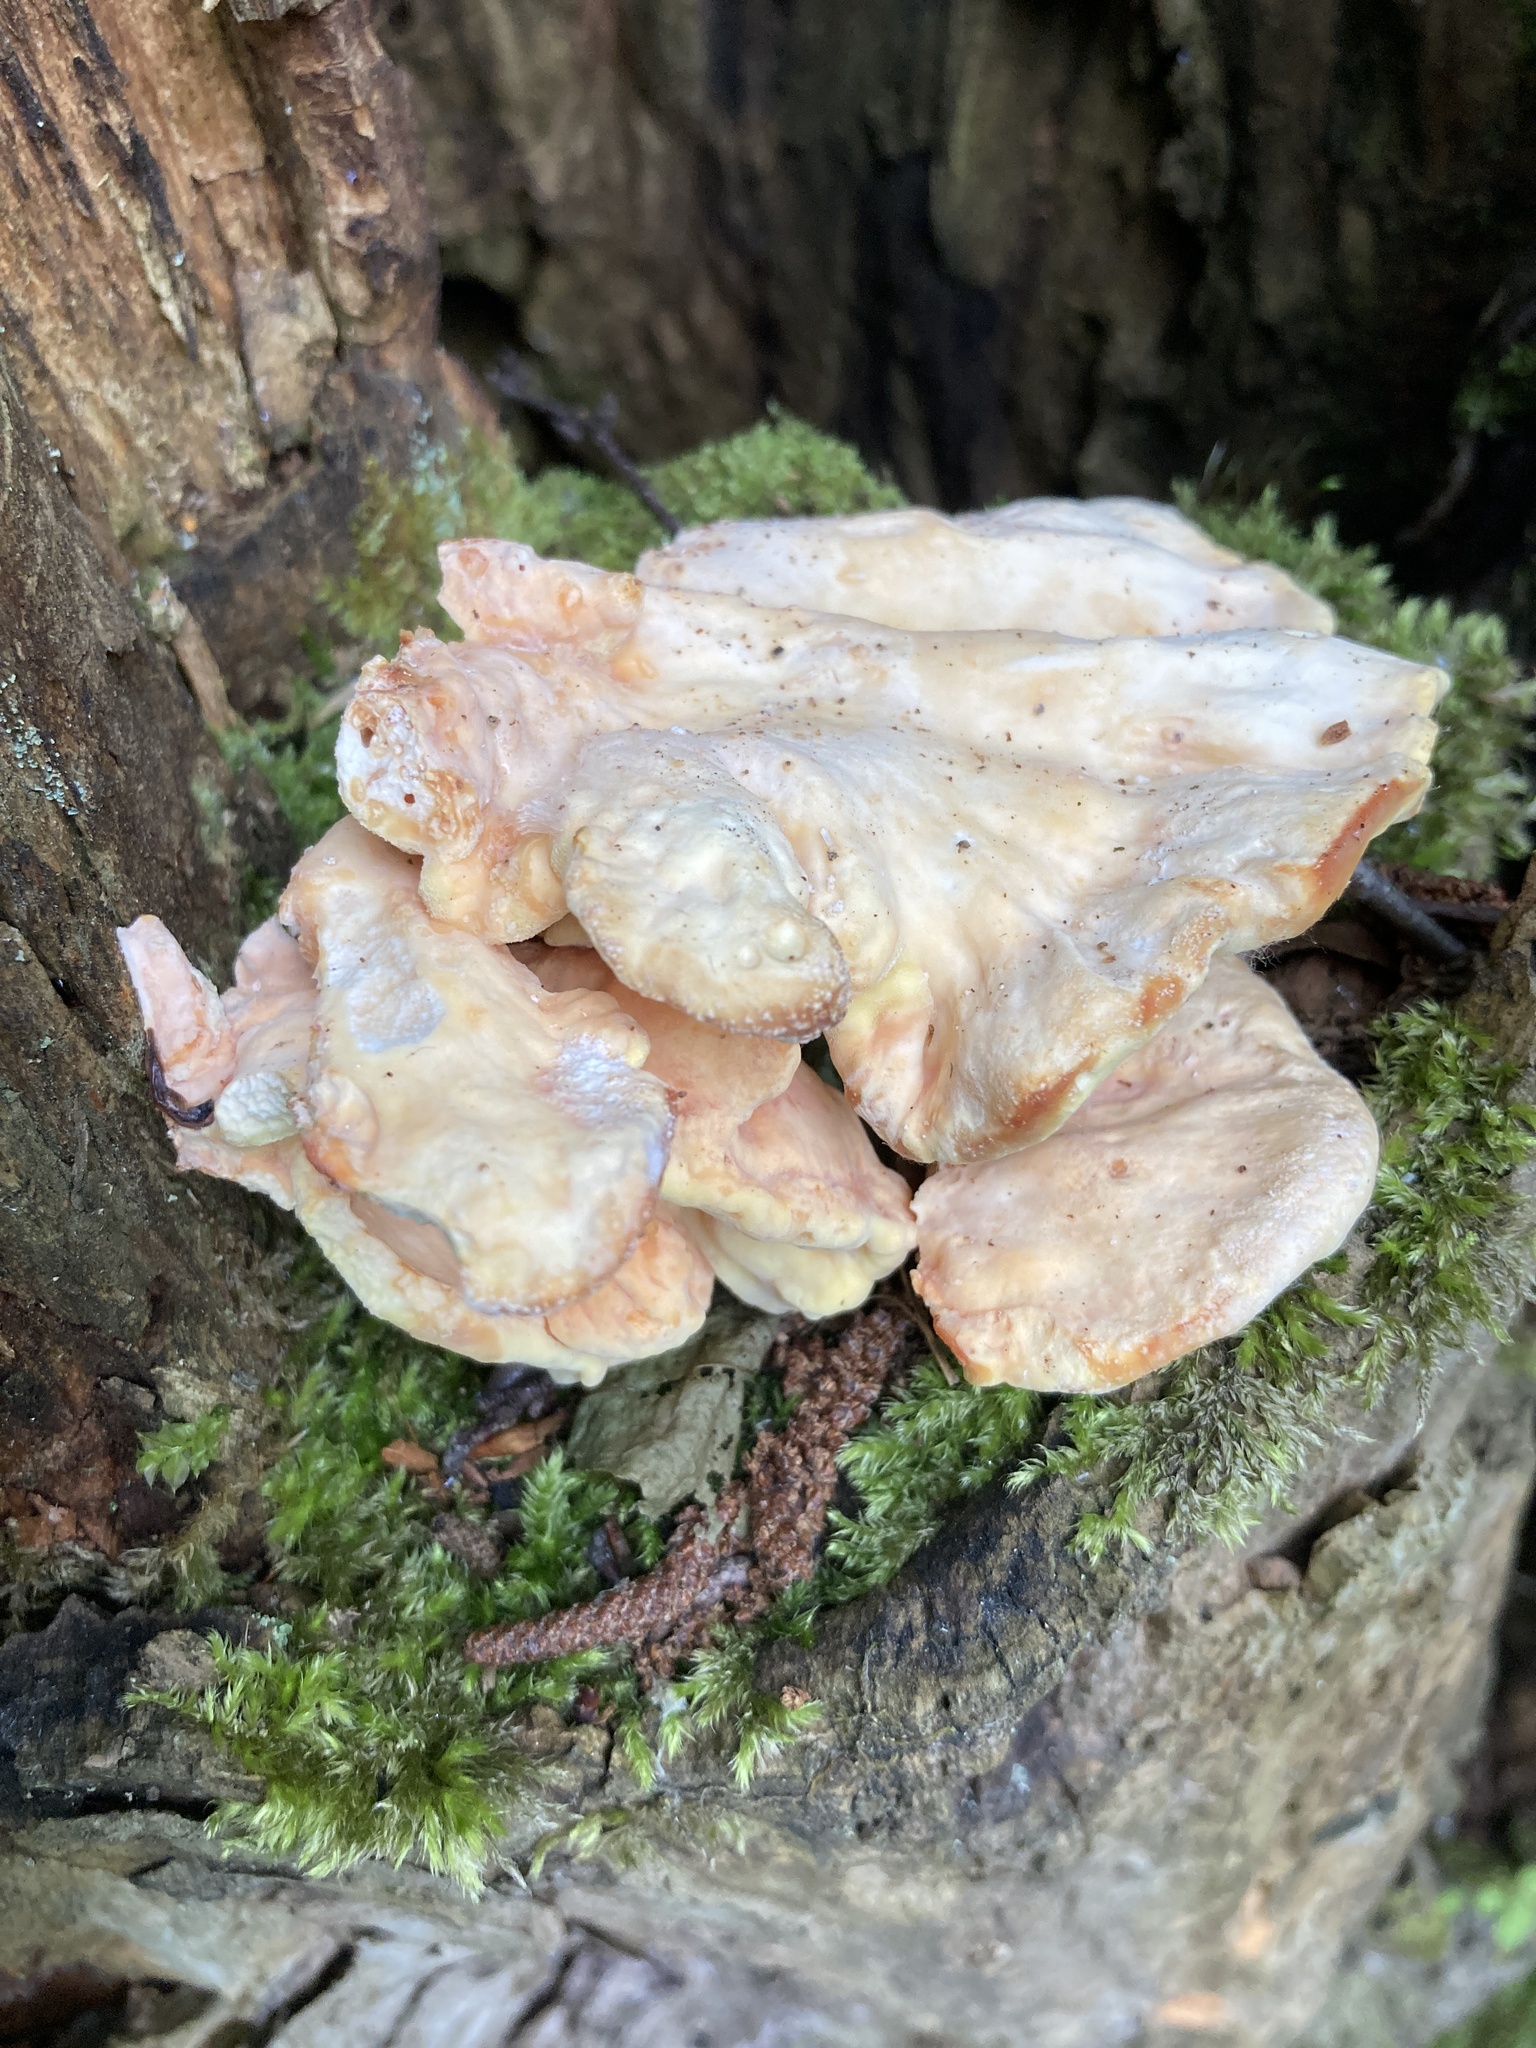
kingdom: Fungi
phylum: Basidiomycota
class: Agaricomycetes
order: Polyporales
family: Laetiporaceae
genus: Laetiporus
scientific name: Laetiporus sulphureus
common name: Chicken of the woods
